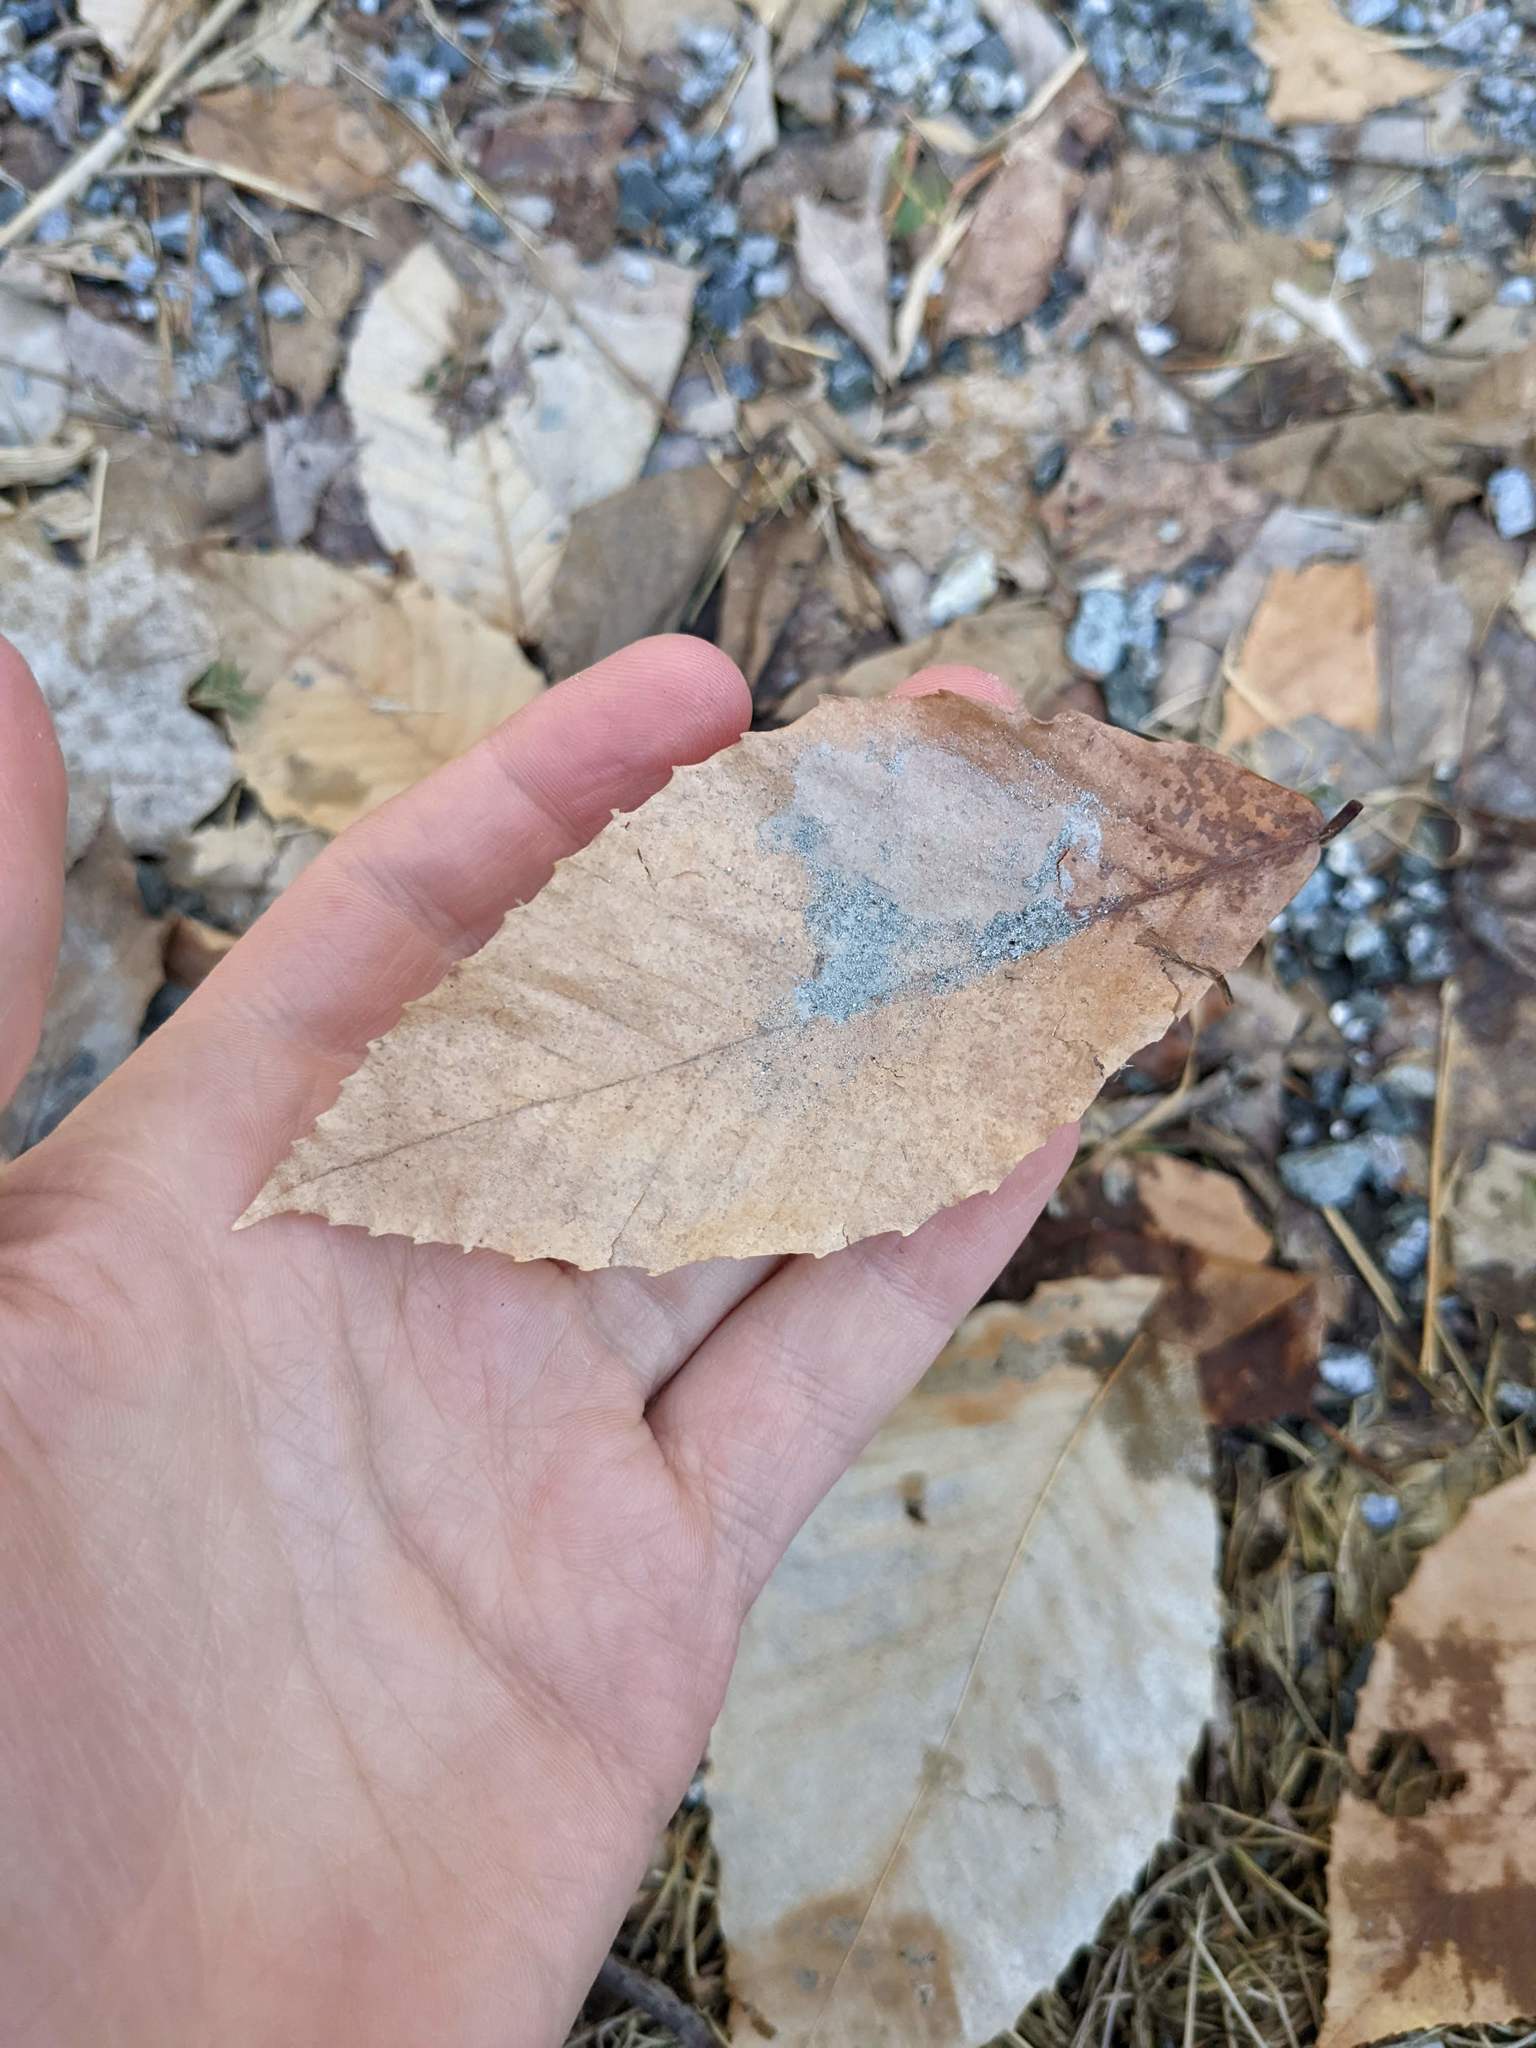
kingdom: Plantae
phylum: Tracheophyta
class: Magnoliopsida
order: Fagales
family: Fagaceae
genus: Fagus
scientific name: Fagus grandifolia
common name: American beech
